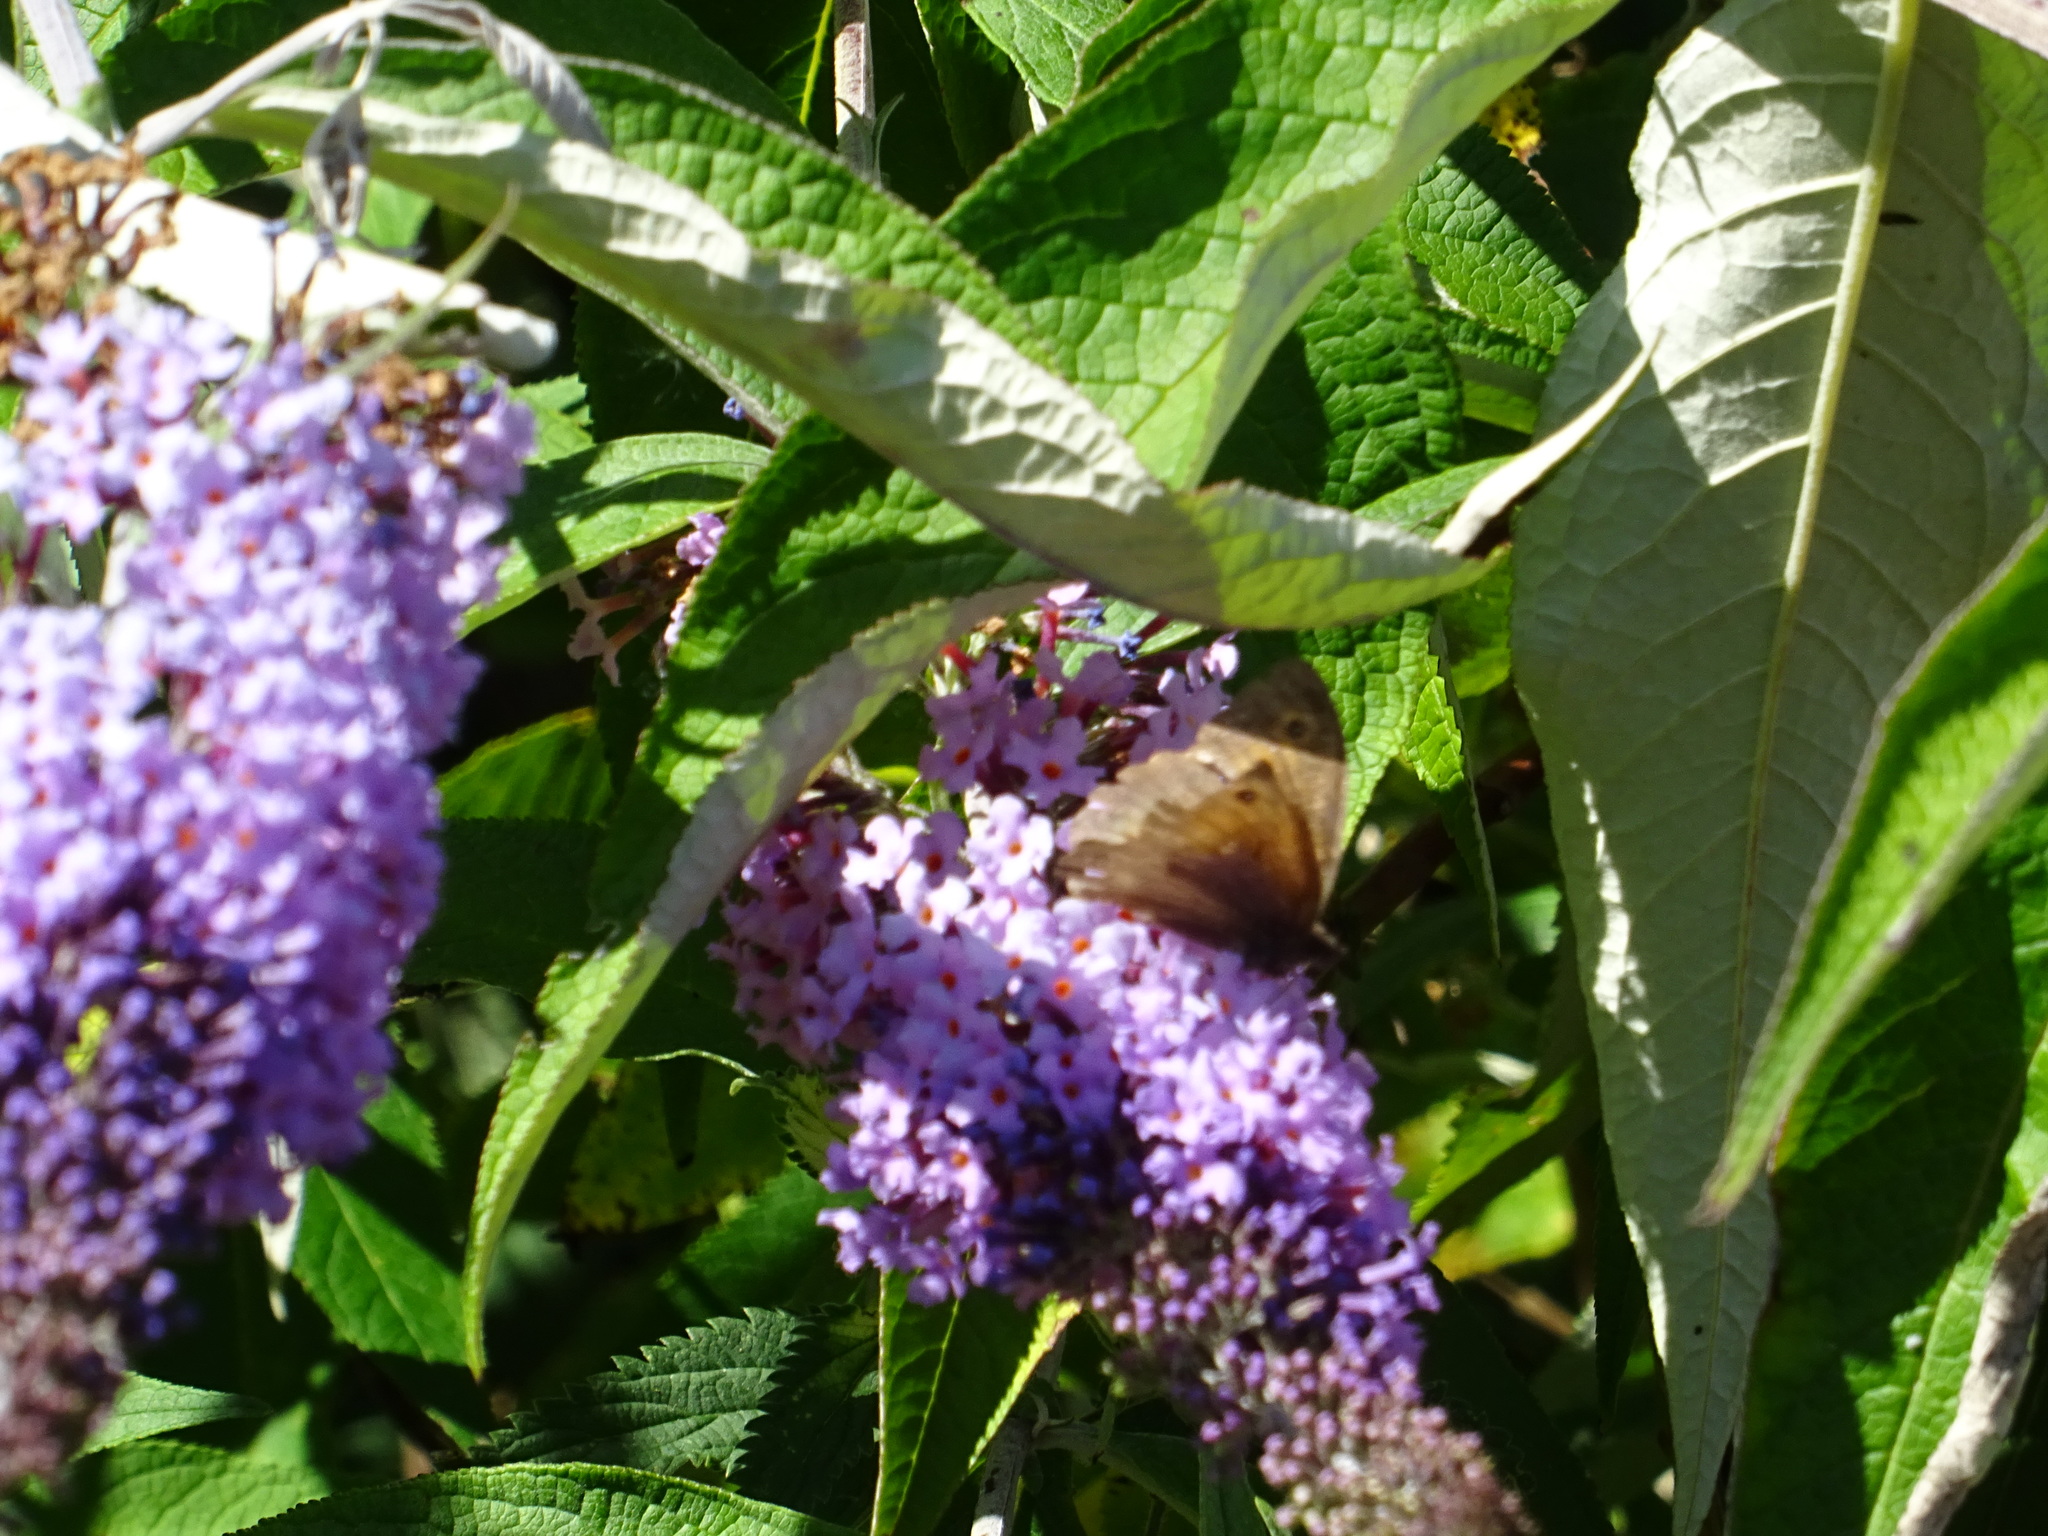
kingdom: Animalia
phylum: Arthropoda
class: Insecta
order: Lepidoptera
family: Nymphalidae
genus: Maniola
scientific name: Maniola jurtina
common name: Meadow brown
